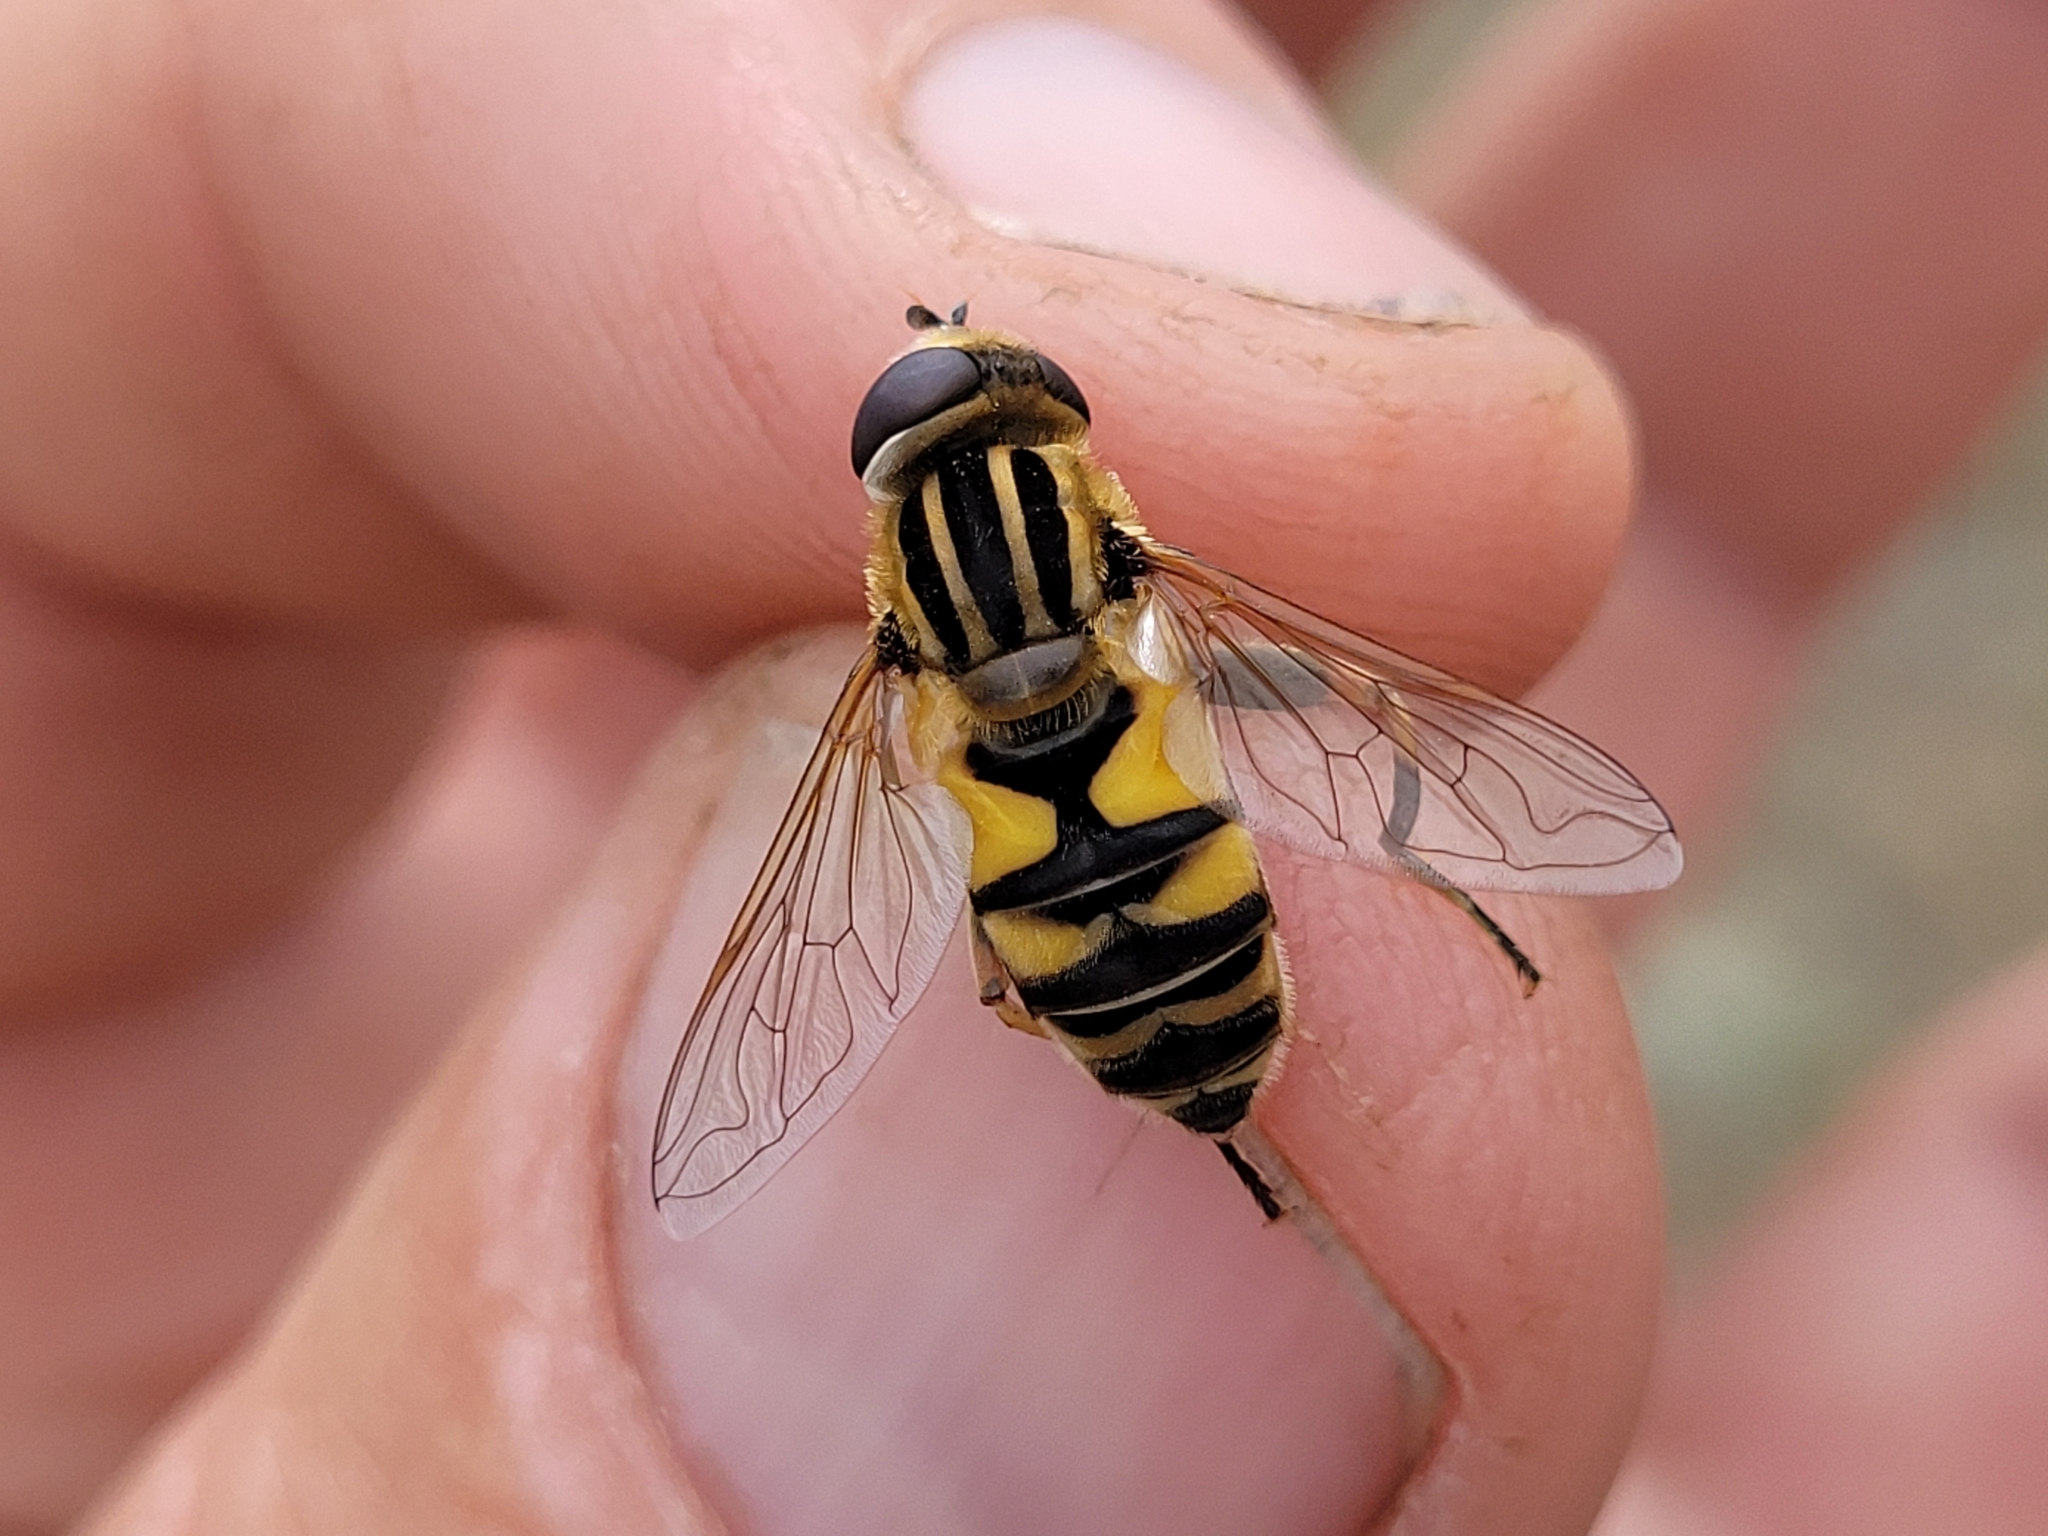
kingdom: Animalia
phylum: Arthropoda
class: Insecta
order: Diptera
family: Syrphidae
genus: Helophilus
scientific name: Helophilus latifrons
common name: Broad-headed marsh fly
